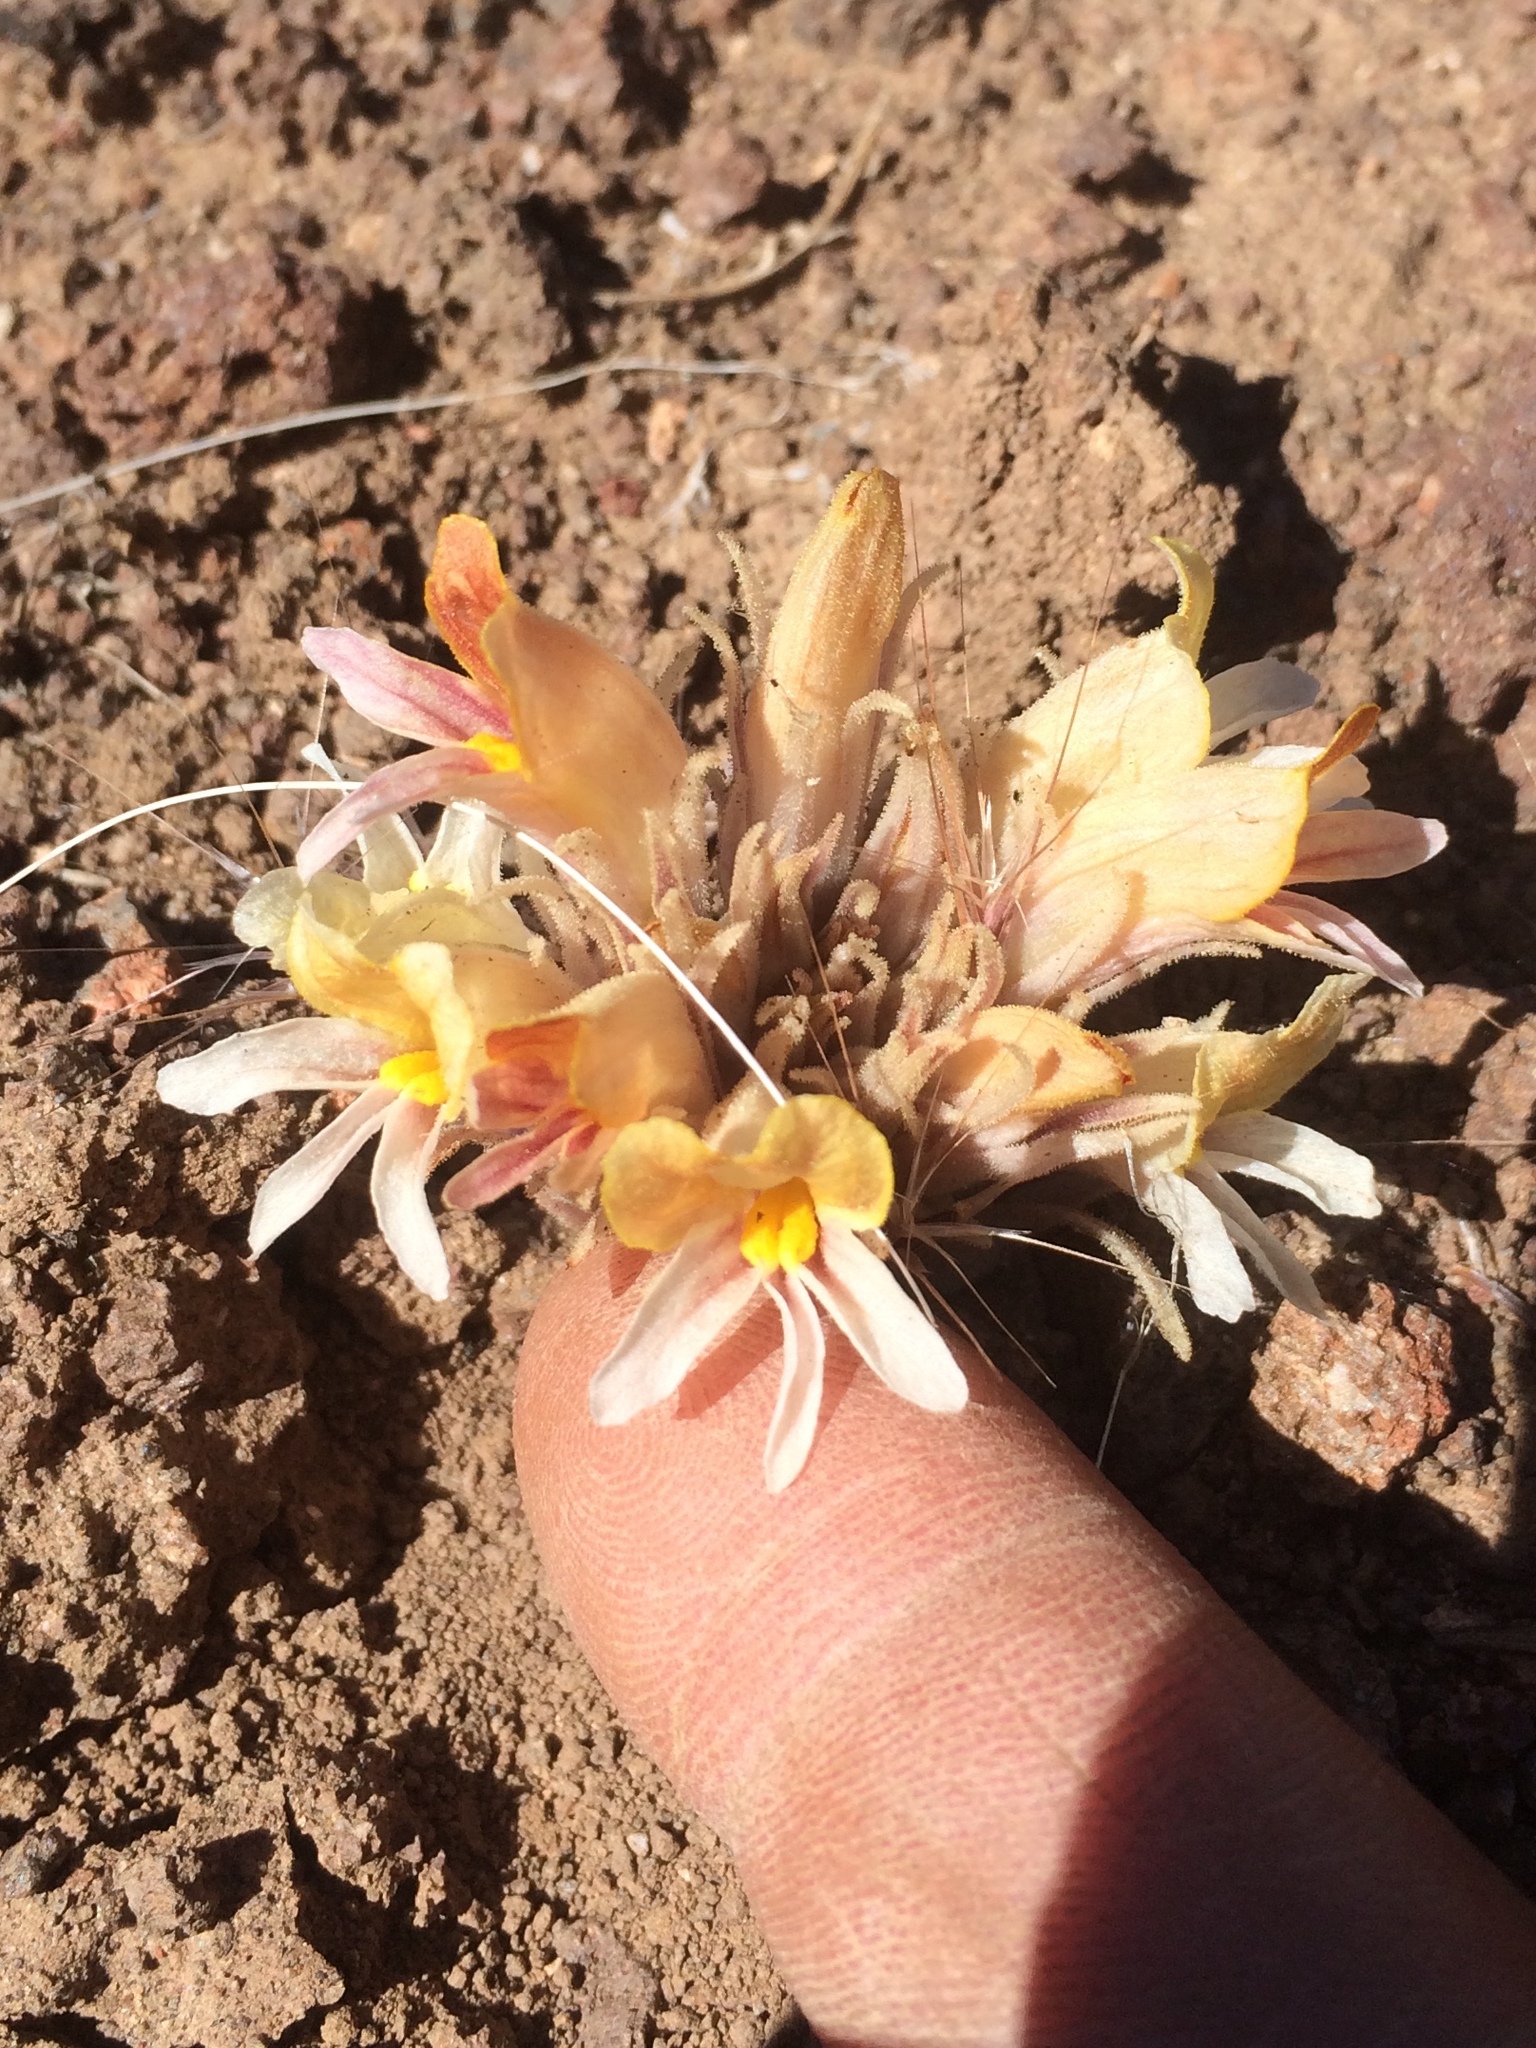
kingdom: Plantae
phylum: Tracheophyta
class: Magnoliopsida
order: Lamiales
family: Orobanchaceae
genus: Aphyllon
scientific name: Aphyllon corymbosum
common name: Flat-top broomrape
